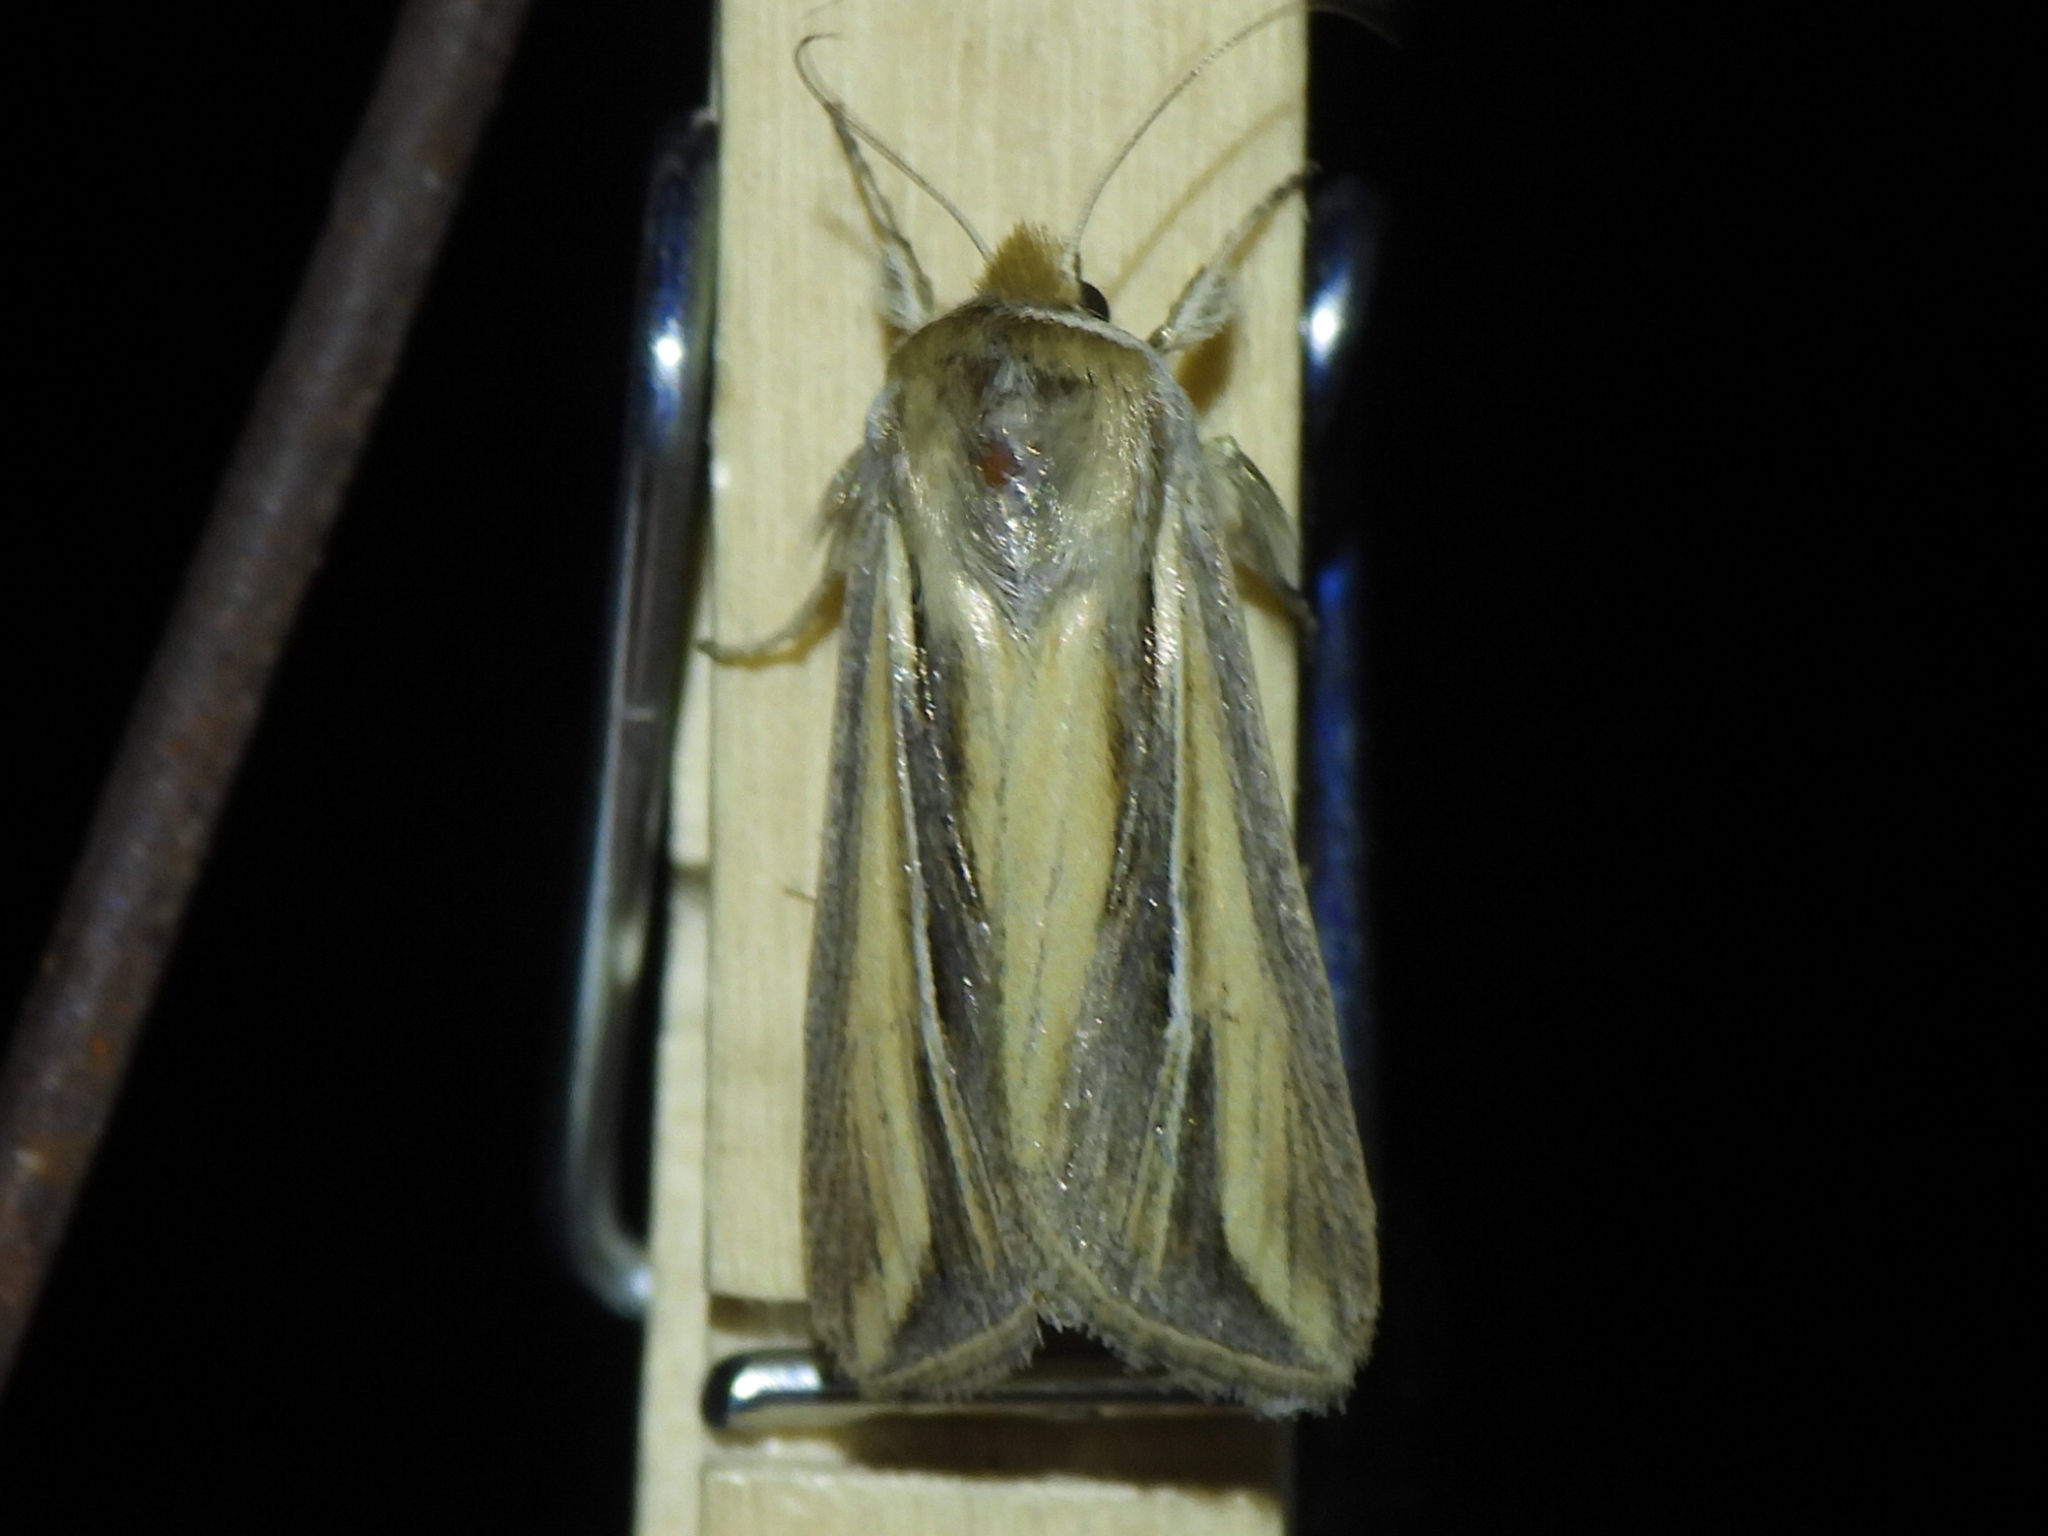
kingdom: Animalia
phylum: Arthropoda
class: Insecta
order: Lepidoptera
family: Noctuidae
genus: Dargida
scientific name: Dargida diffusa
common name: Wheat head armyworm
